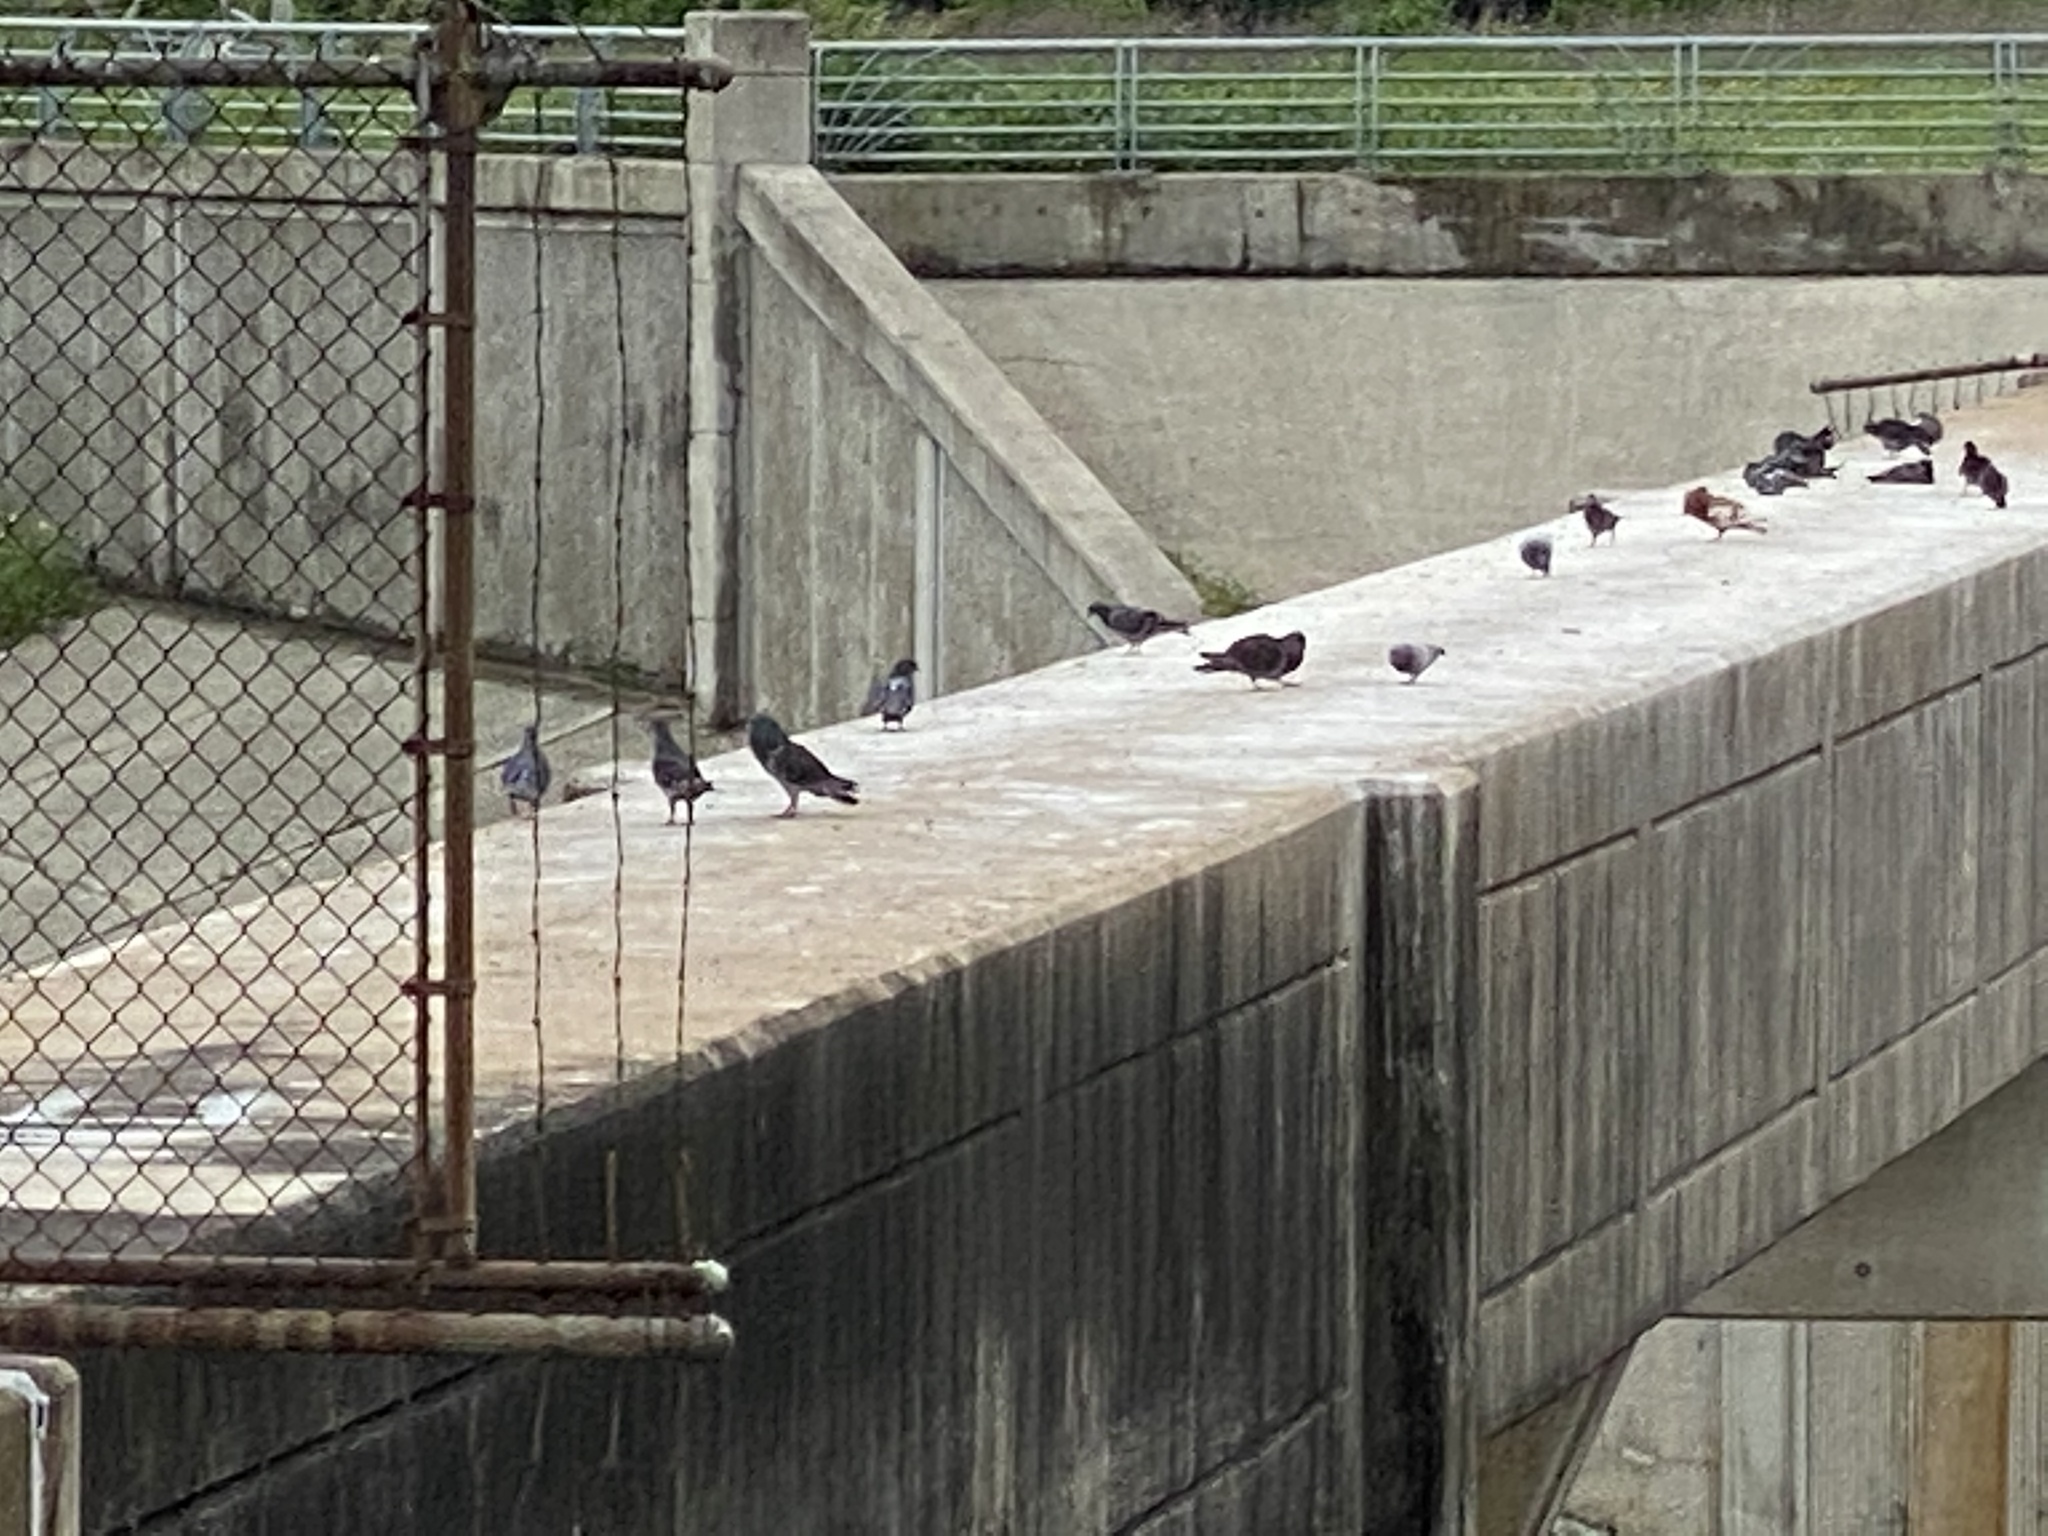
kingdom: Animalia
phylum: Chordata
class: Aves
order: Columbiformes
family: Columbidae
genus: Columba
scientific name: Columba livia
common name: Rock pigeon
